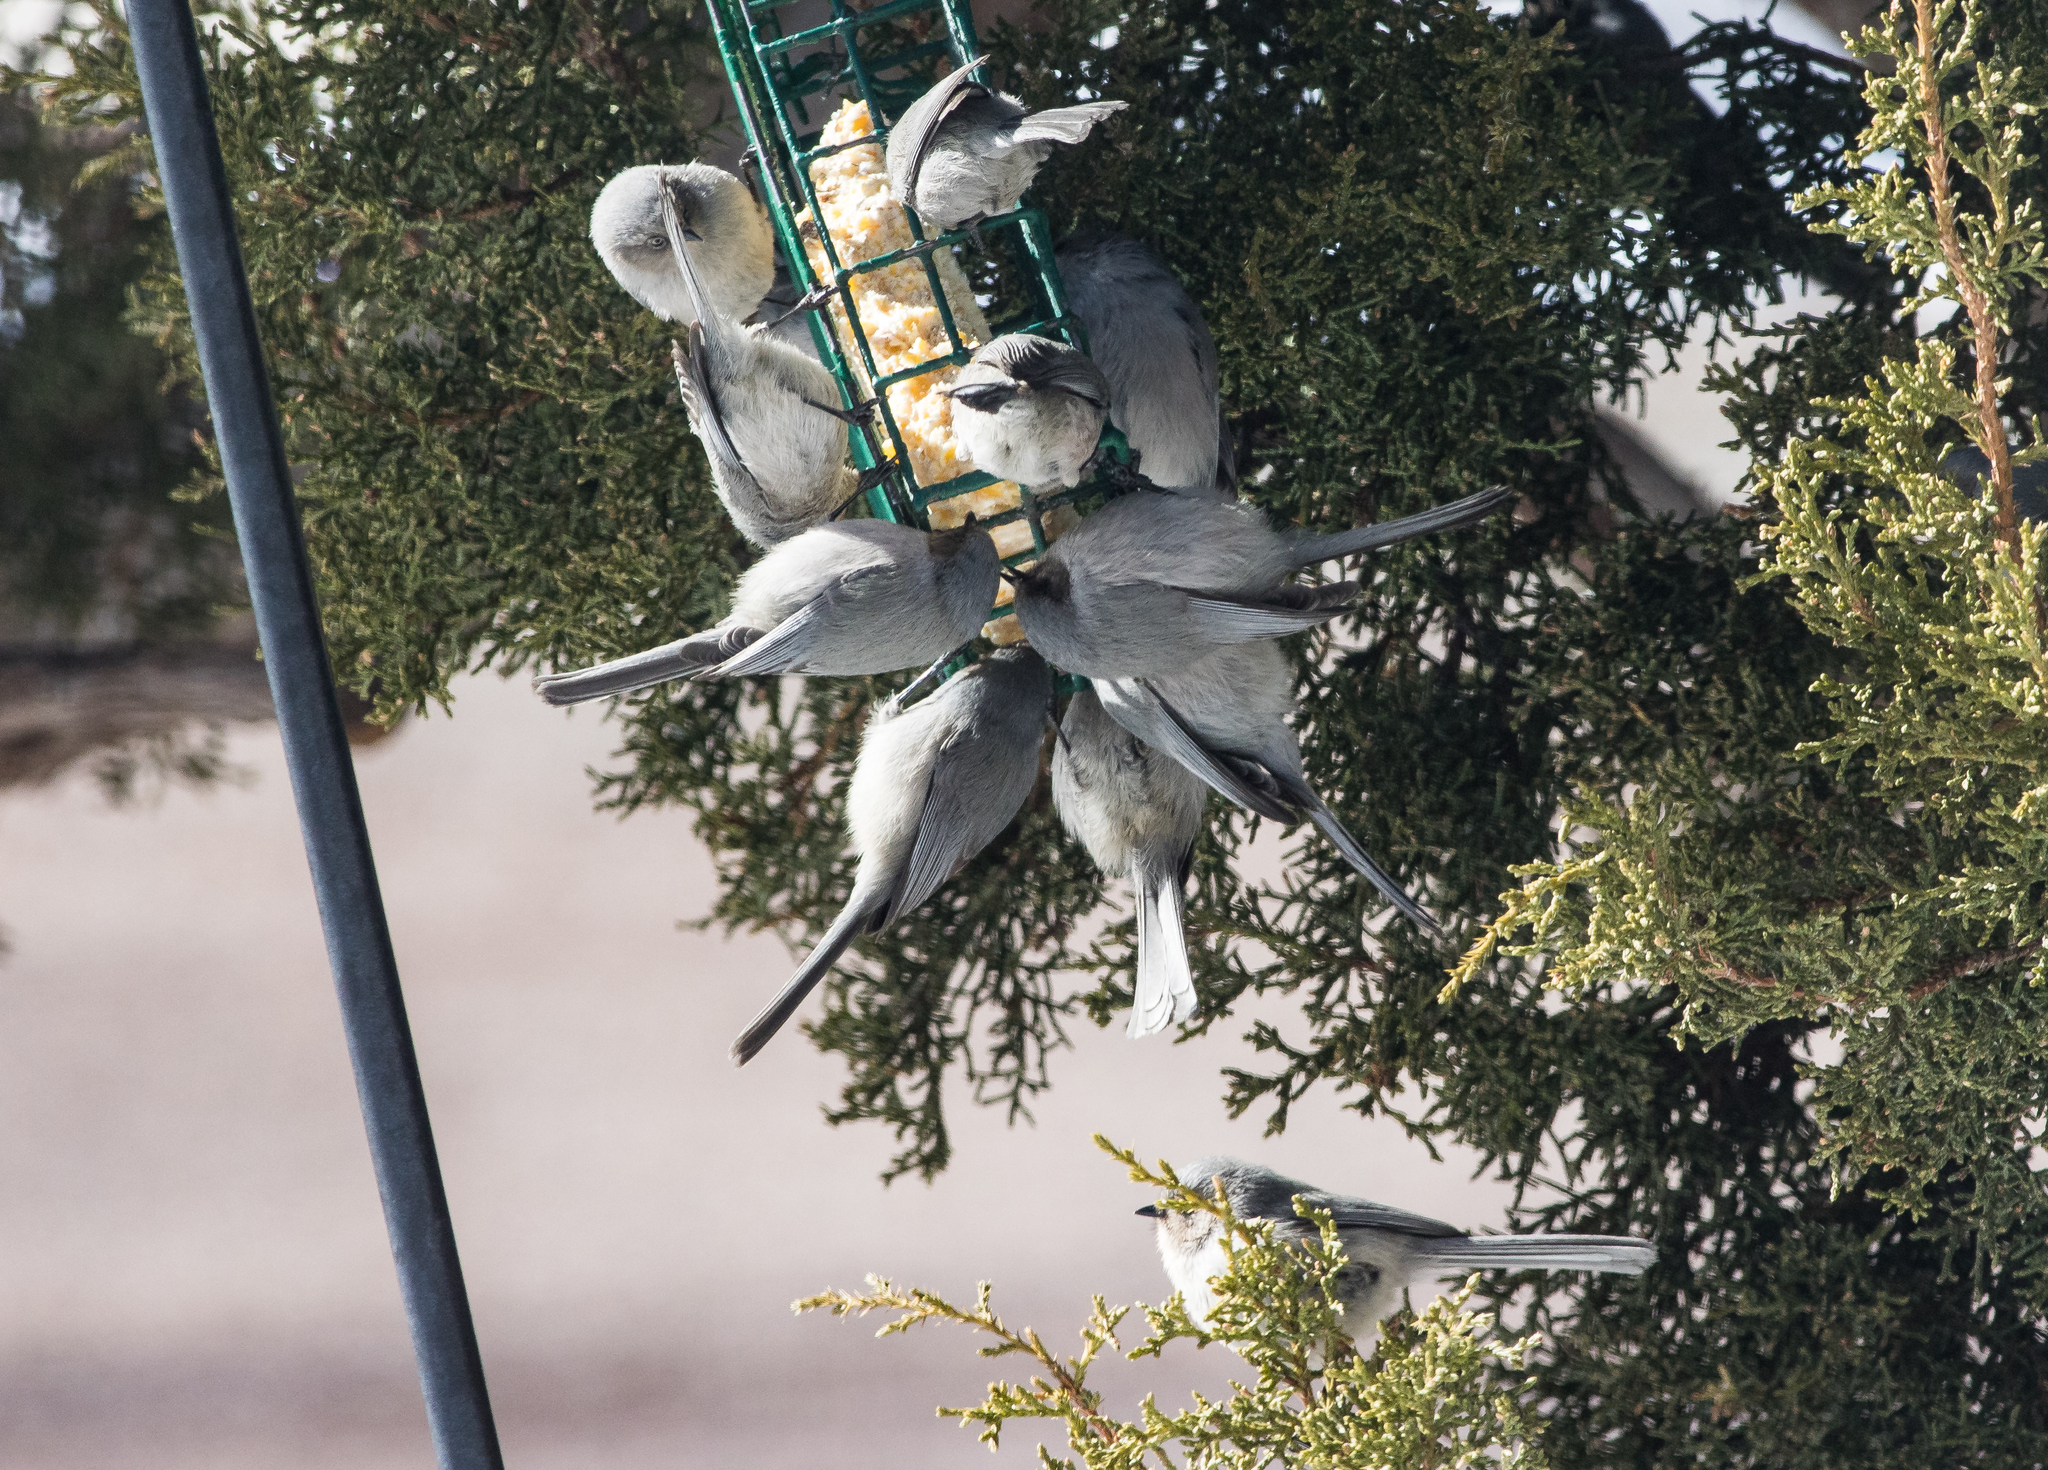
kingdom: Animalia
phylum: Chordata
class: Aves
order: Passeriformes
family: Aegithalidae
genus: Psaltriparus
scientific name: Psaltriparus minimus
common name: American bushtit
